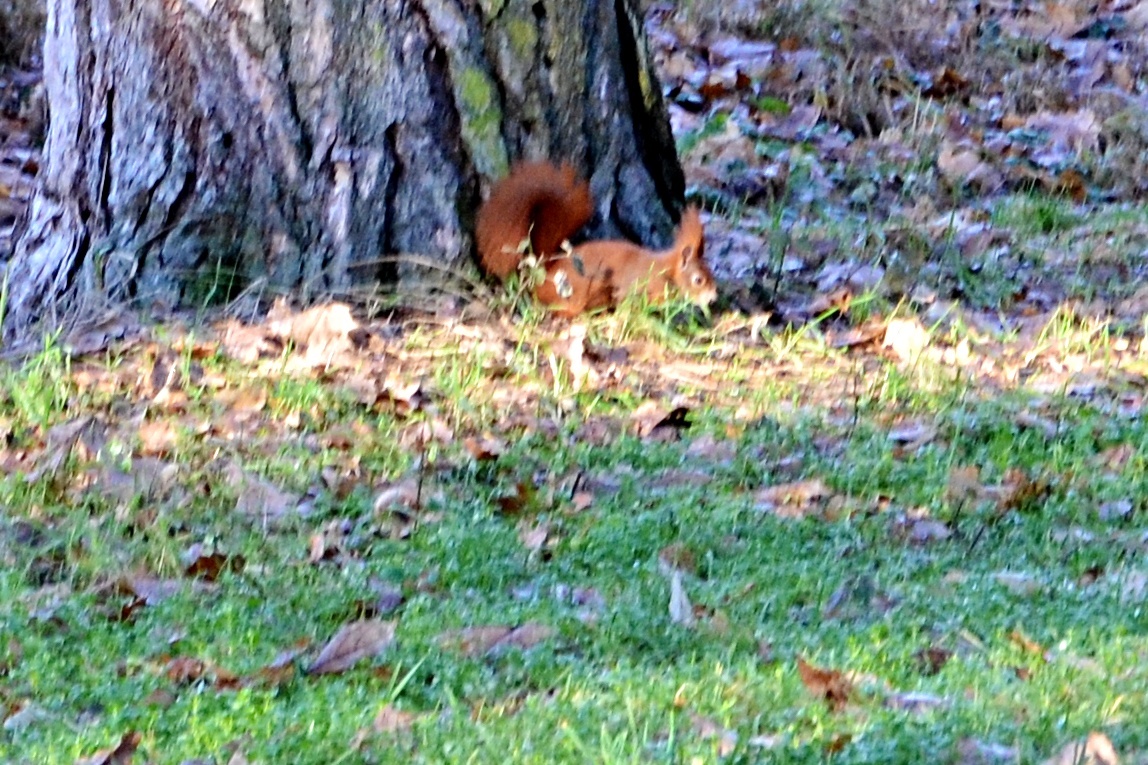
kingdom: Animalia
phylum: Chordata
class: Mammalia
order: Rodentia
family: Sciuridae
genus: Sciurus
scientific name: Sciurus vulgaris
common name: Eurasian red squirrel
